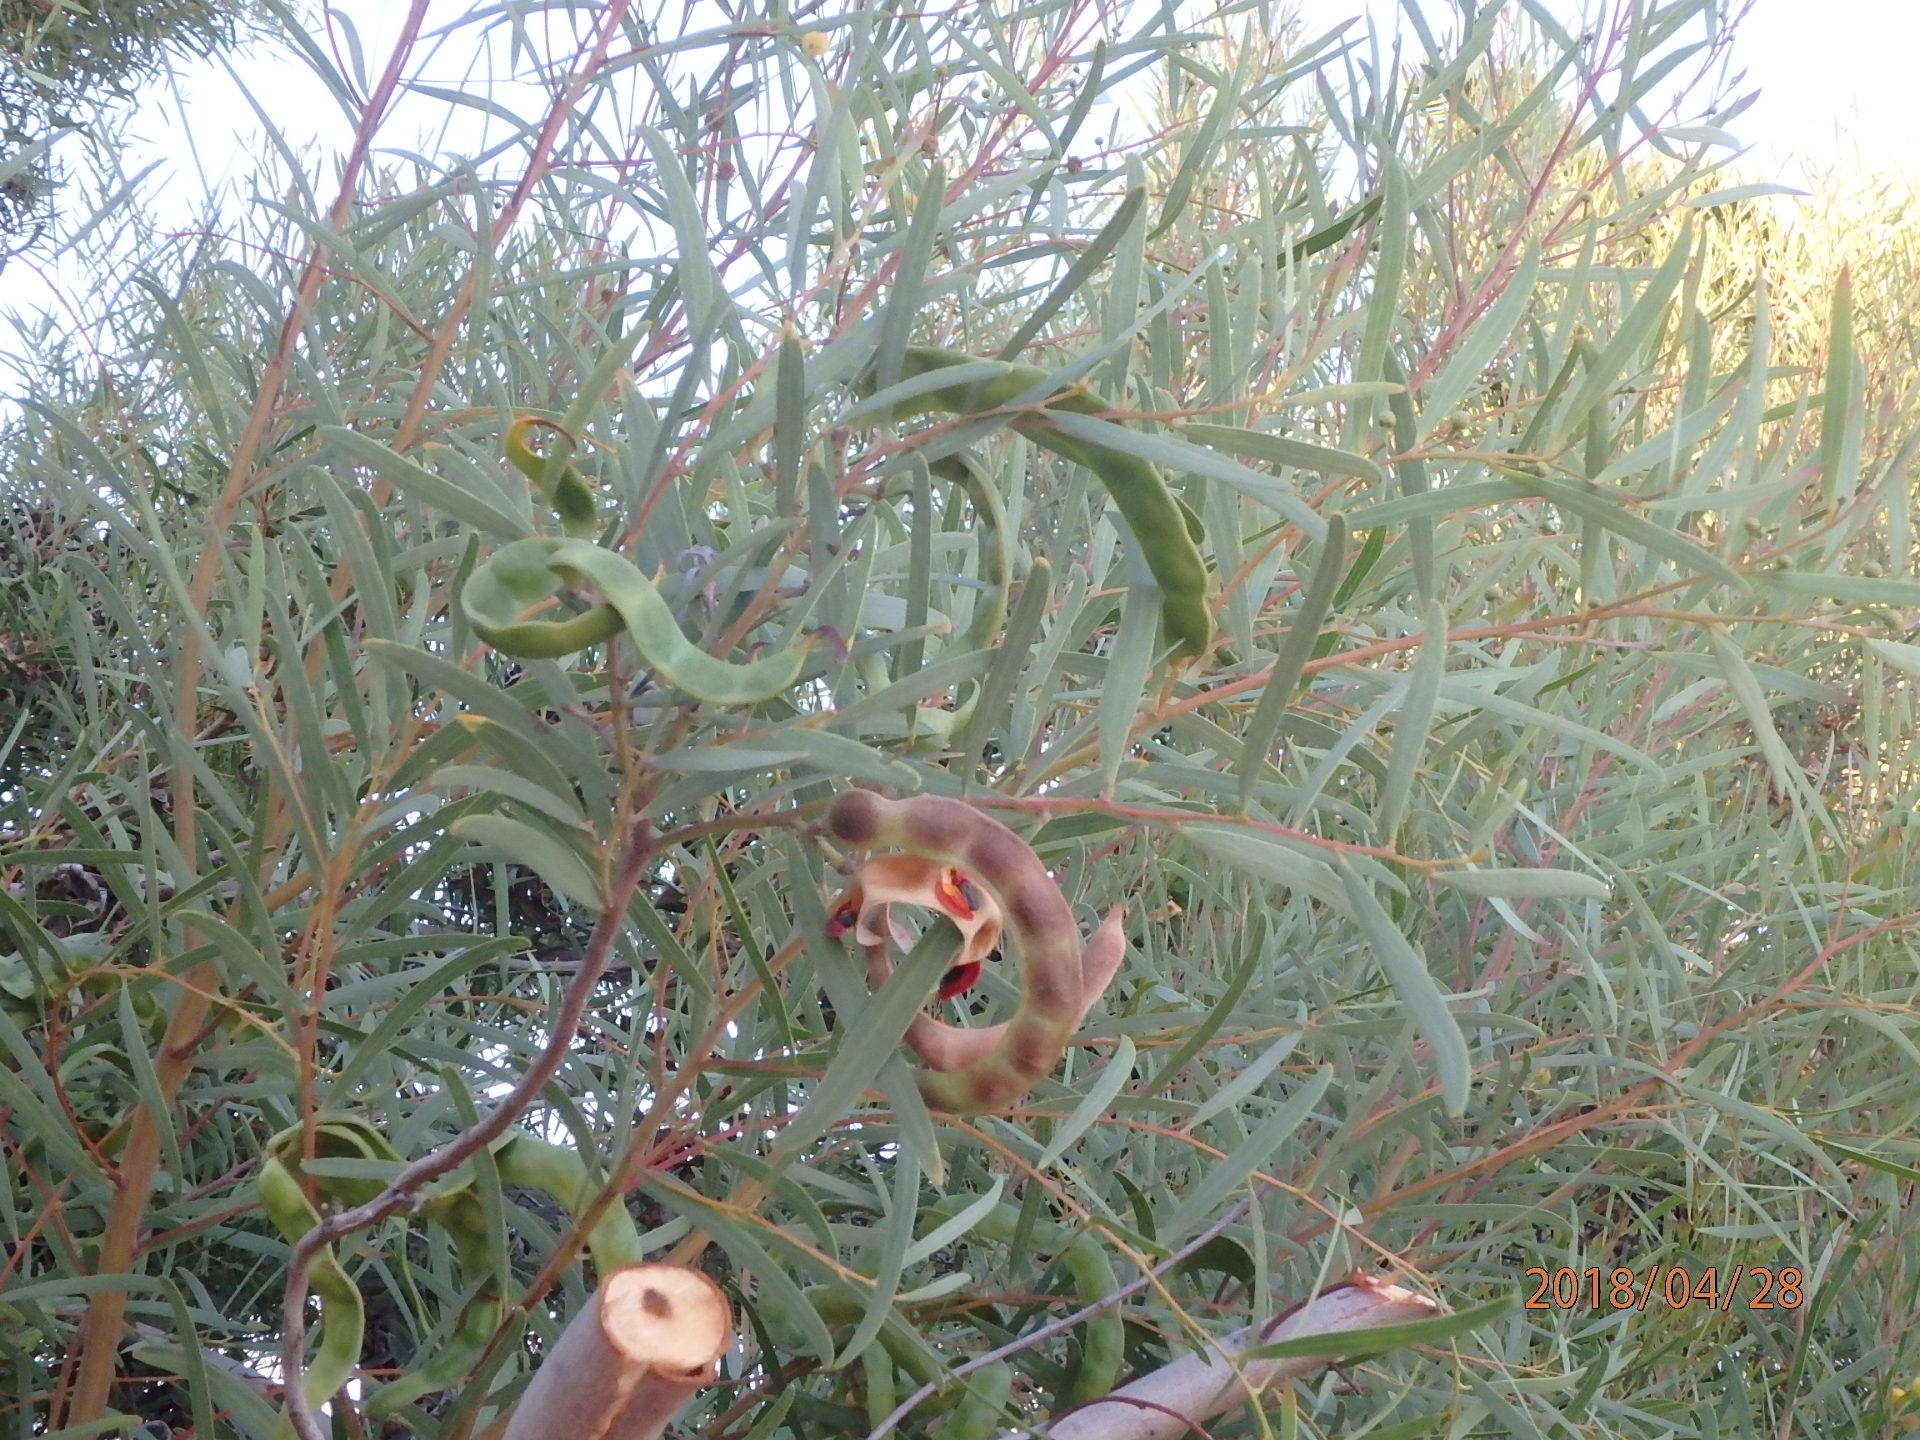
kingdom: Plantae
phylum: Tracheophyta
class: Magnoliopsida
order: Fabales
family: Fabaceae
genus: Acacia
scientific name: Acacia cyclops
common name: Coastal wattle
